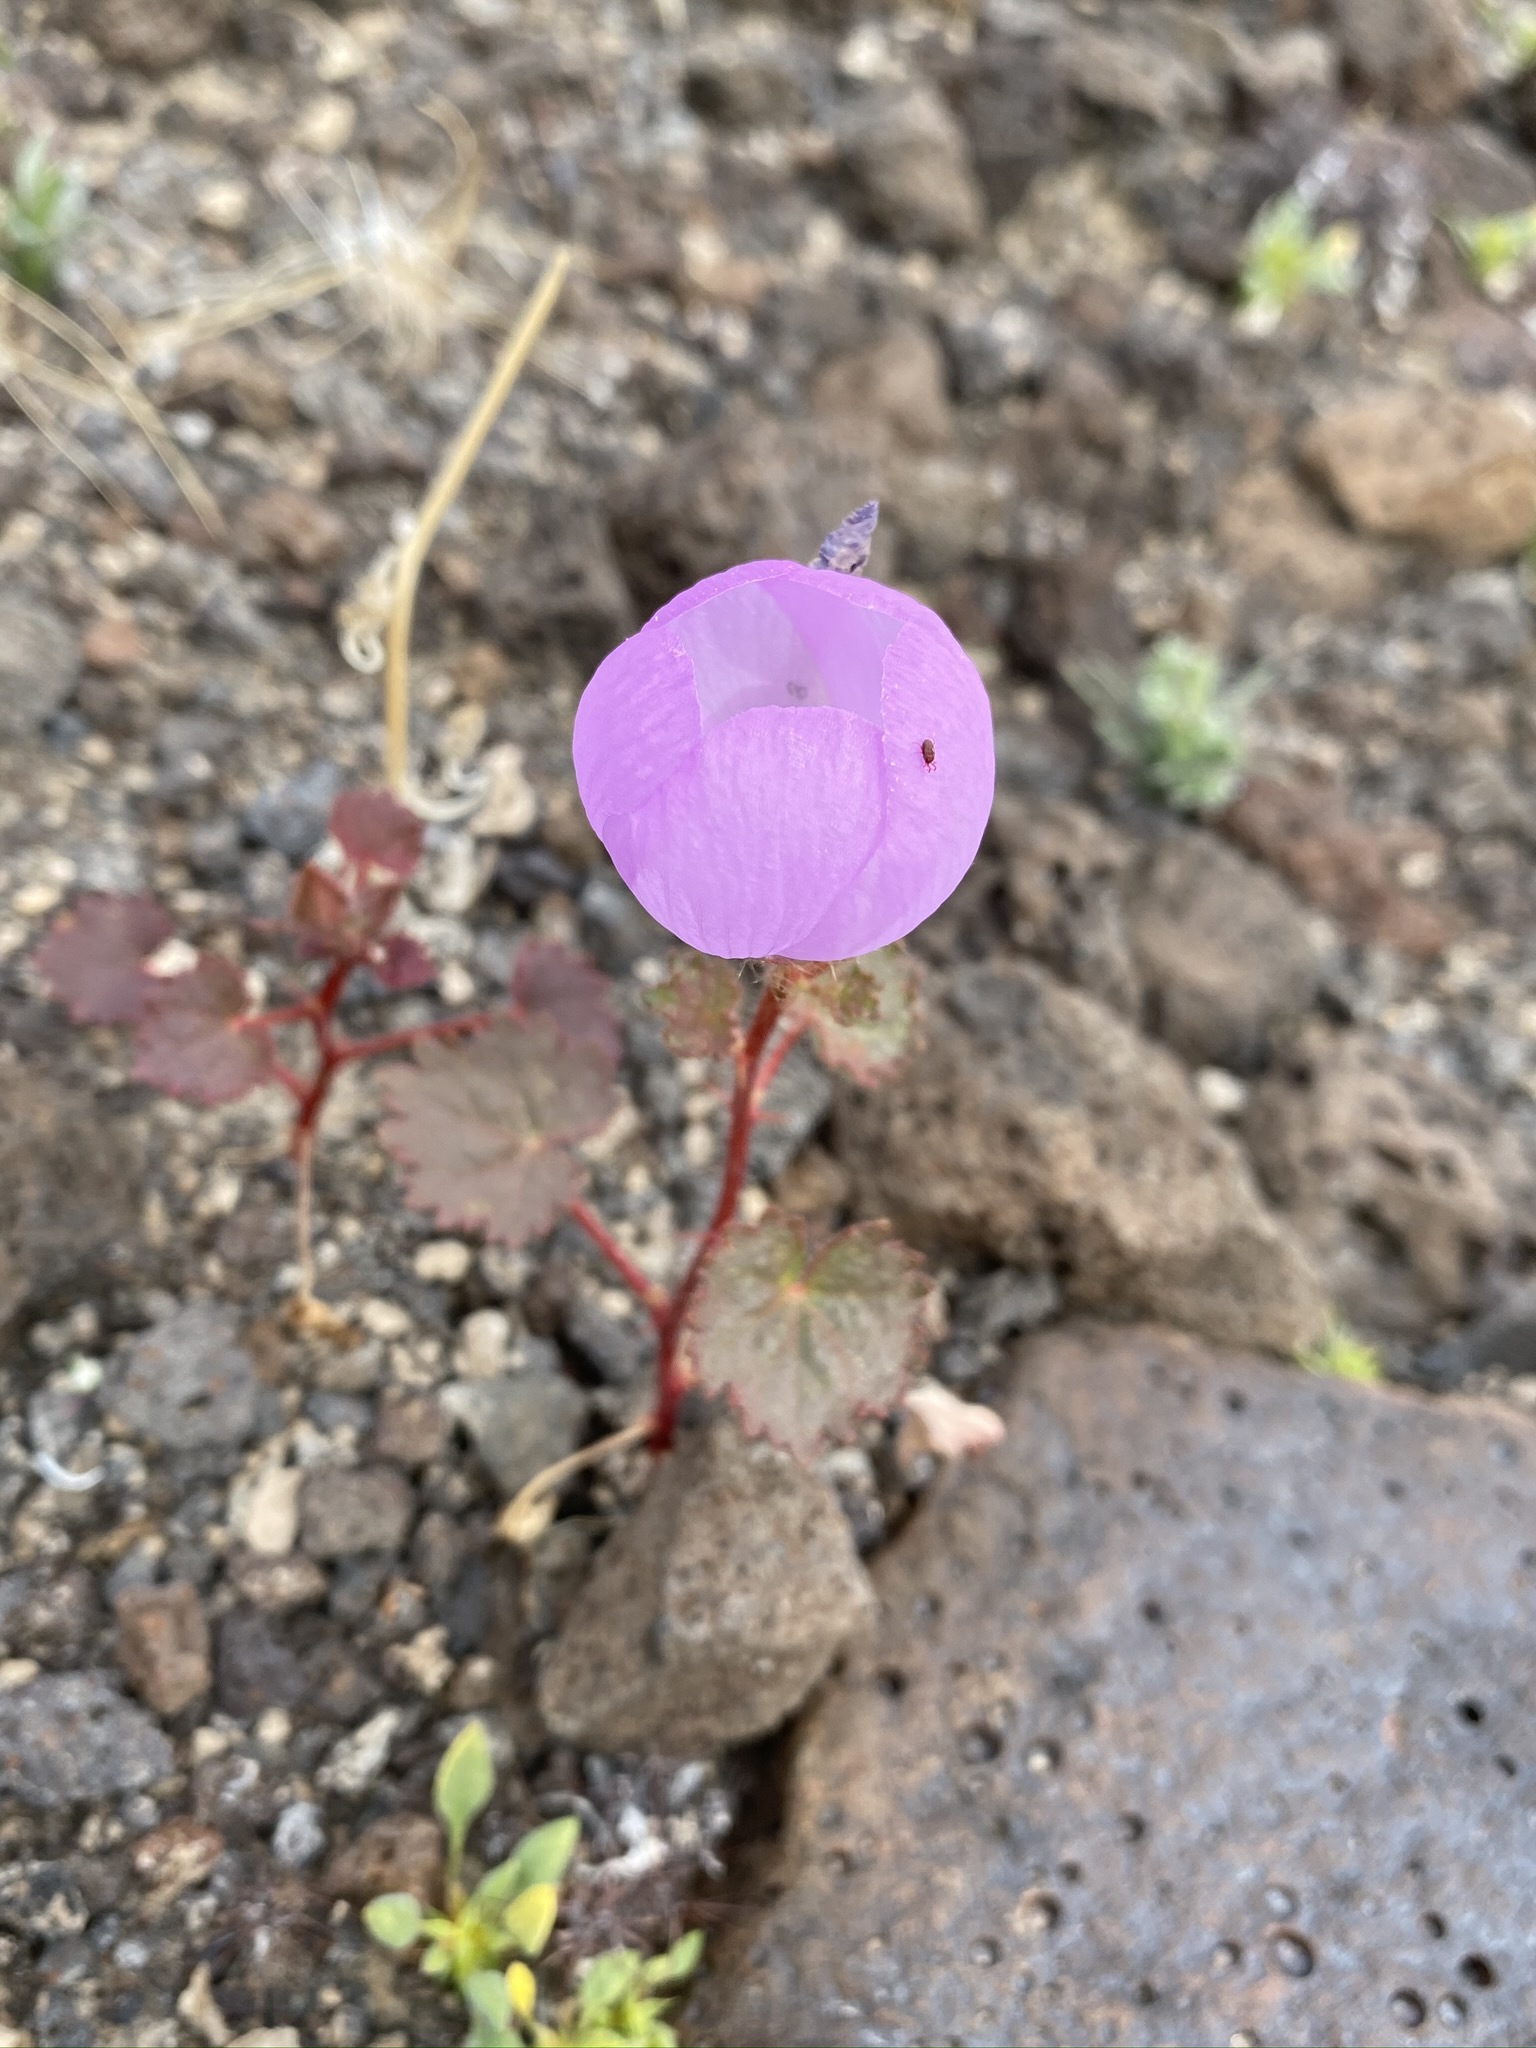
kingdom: Plantae
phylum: Tracheophyta
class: Magnoliopsida
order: Malvales
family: Malvaceae
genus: Eremalche
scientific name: Eremalche rotundifolia
